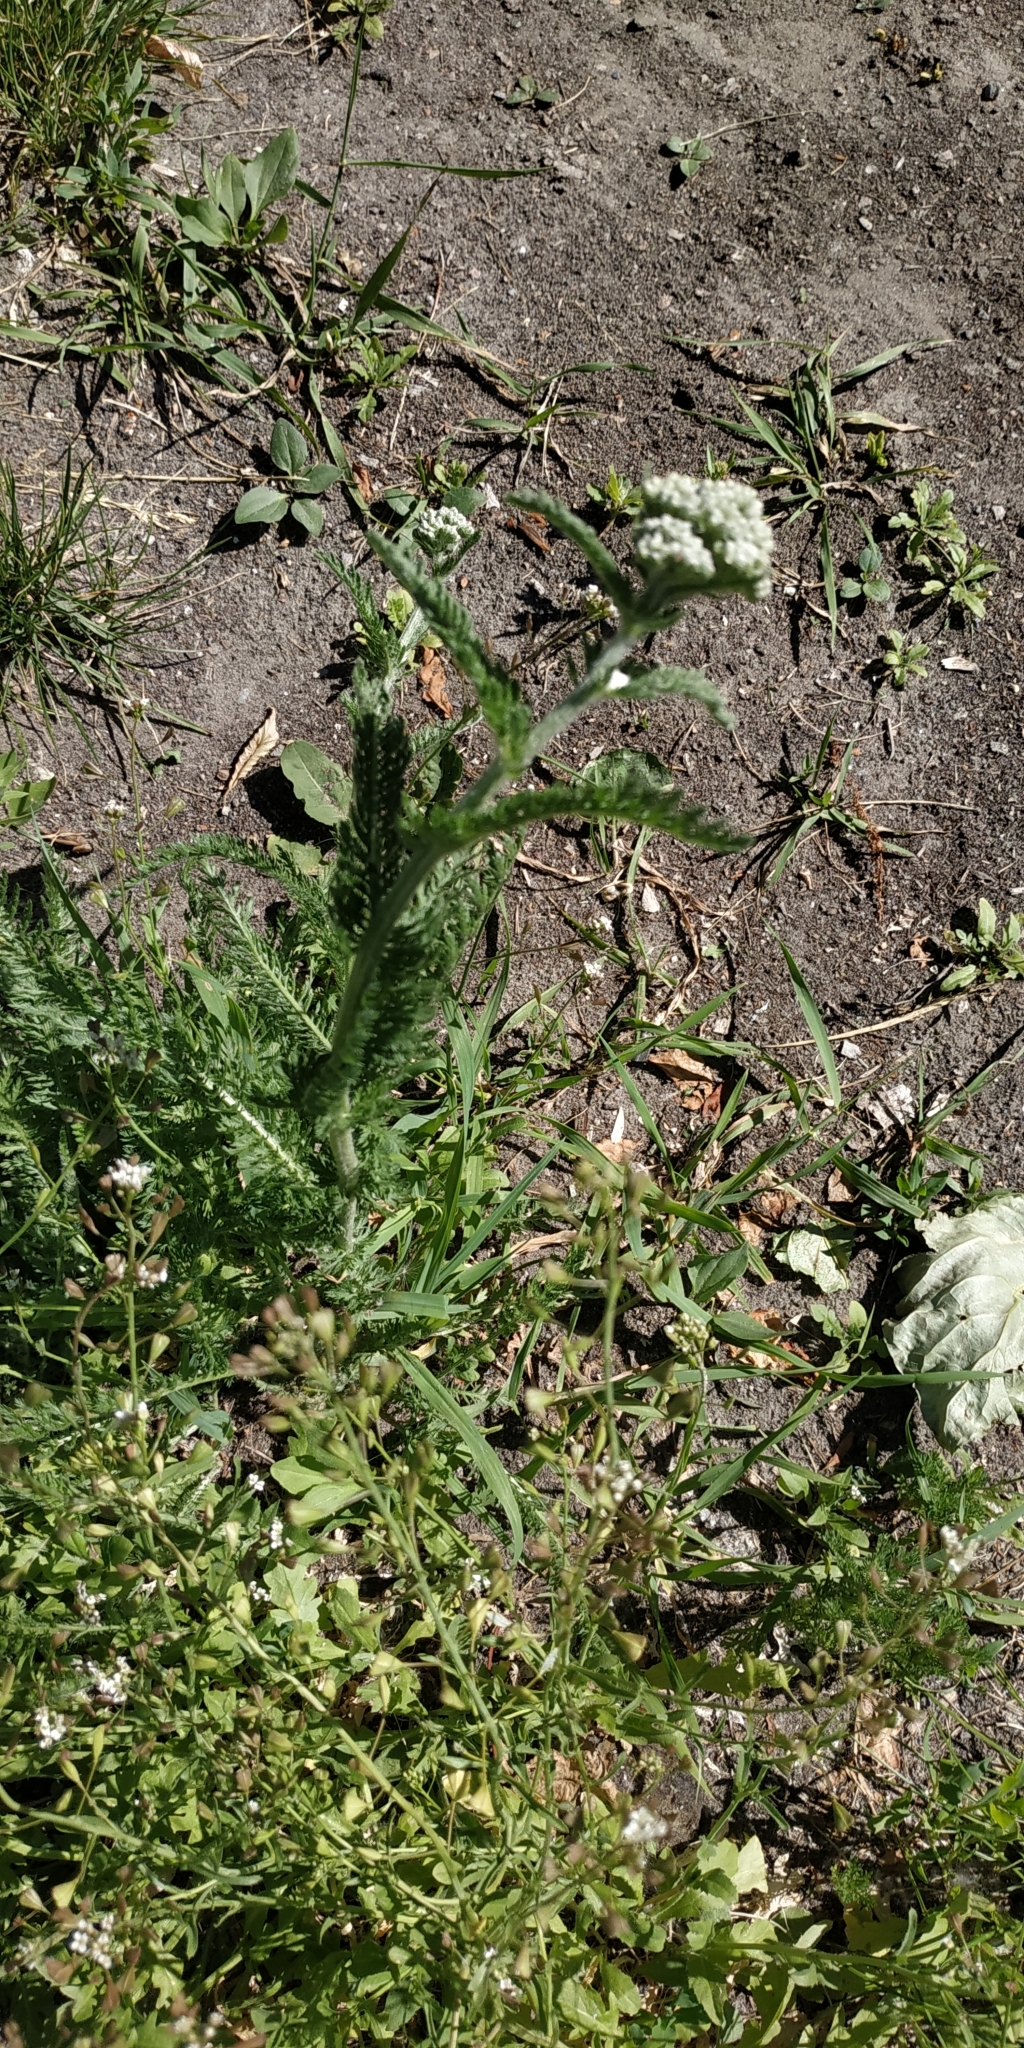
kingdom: Plantae
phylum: Tracheophyta
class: Magnoliopsida
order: Asterales
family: Asteraceae
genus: Achillea
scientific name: Achillea millefolium
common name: Yarrow
